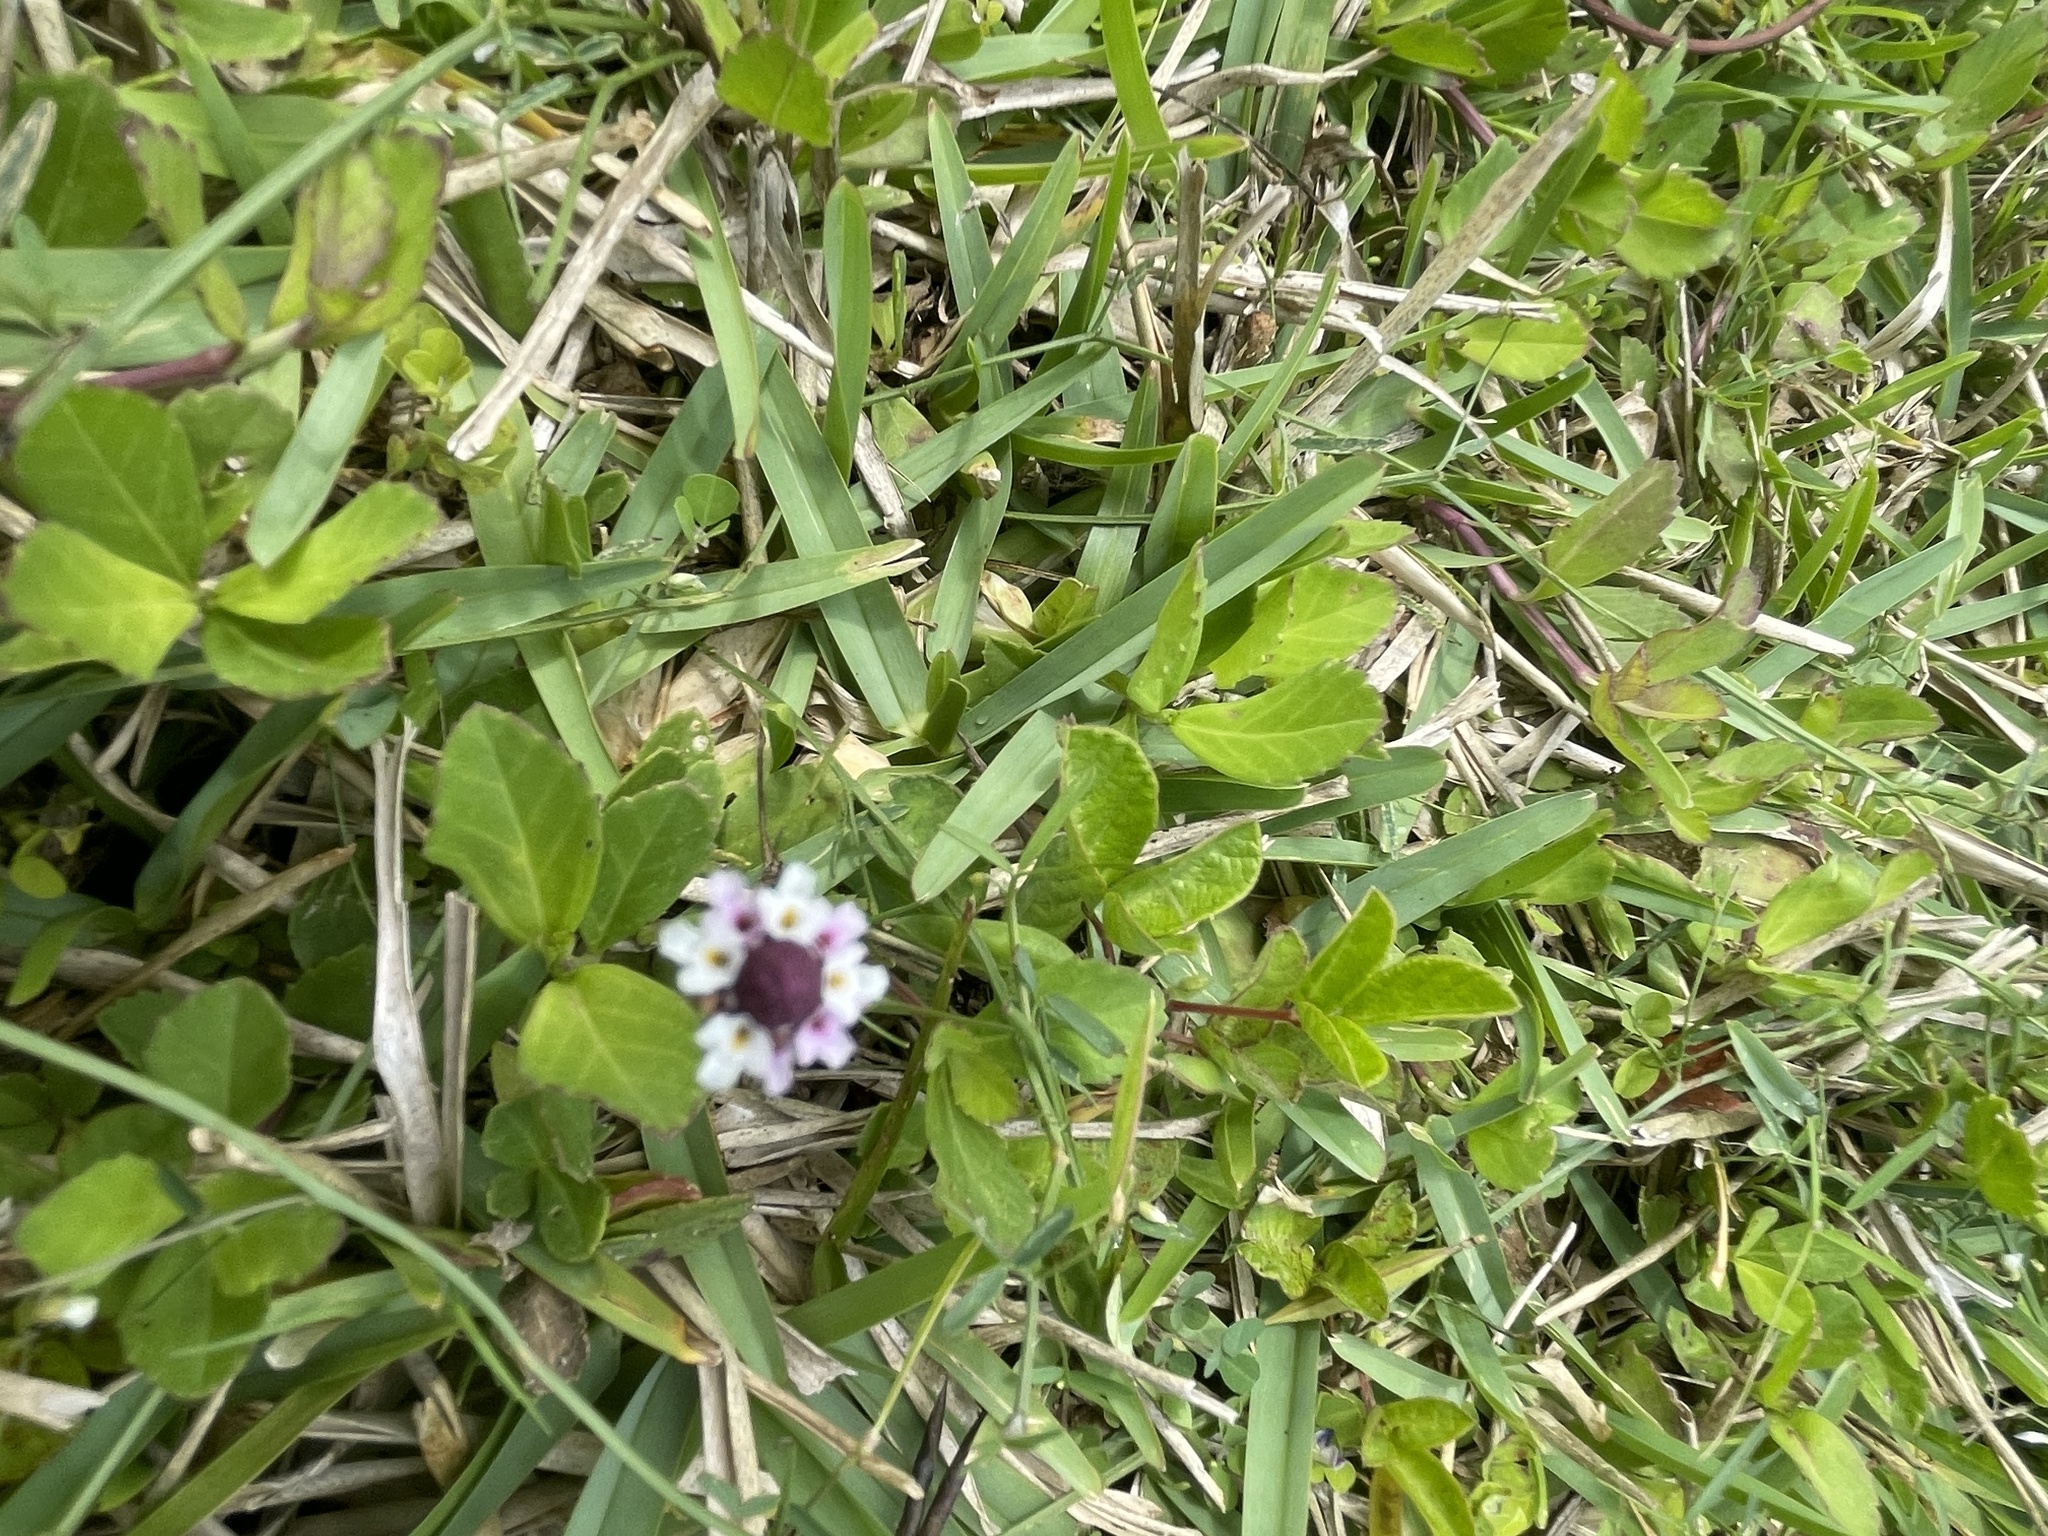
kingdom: Plantae
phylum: Tracheophyta
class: Magnoliopsida
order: Lamiales
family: Verbenaceae
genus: Phyla
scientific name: Phyla nodiflora
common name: Frogfruit
